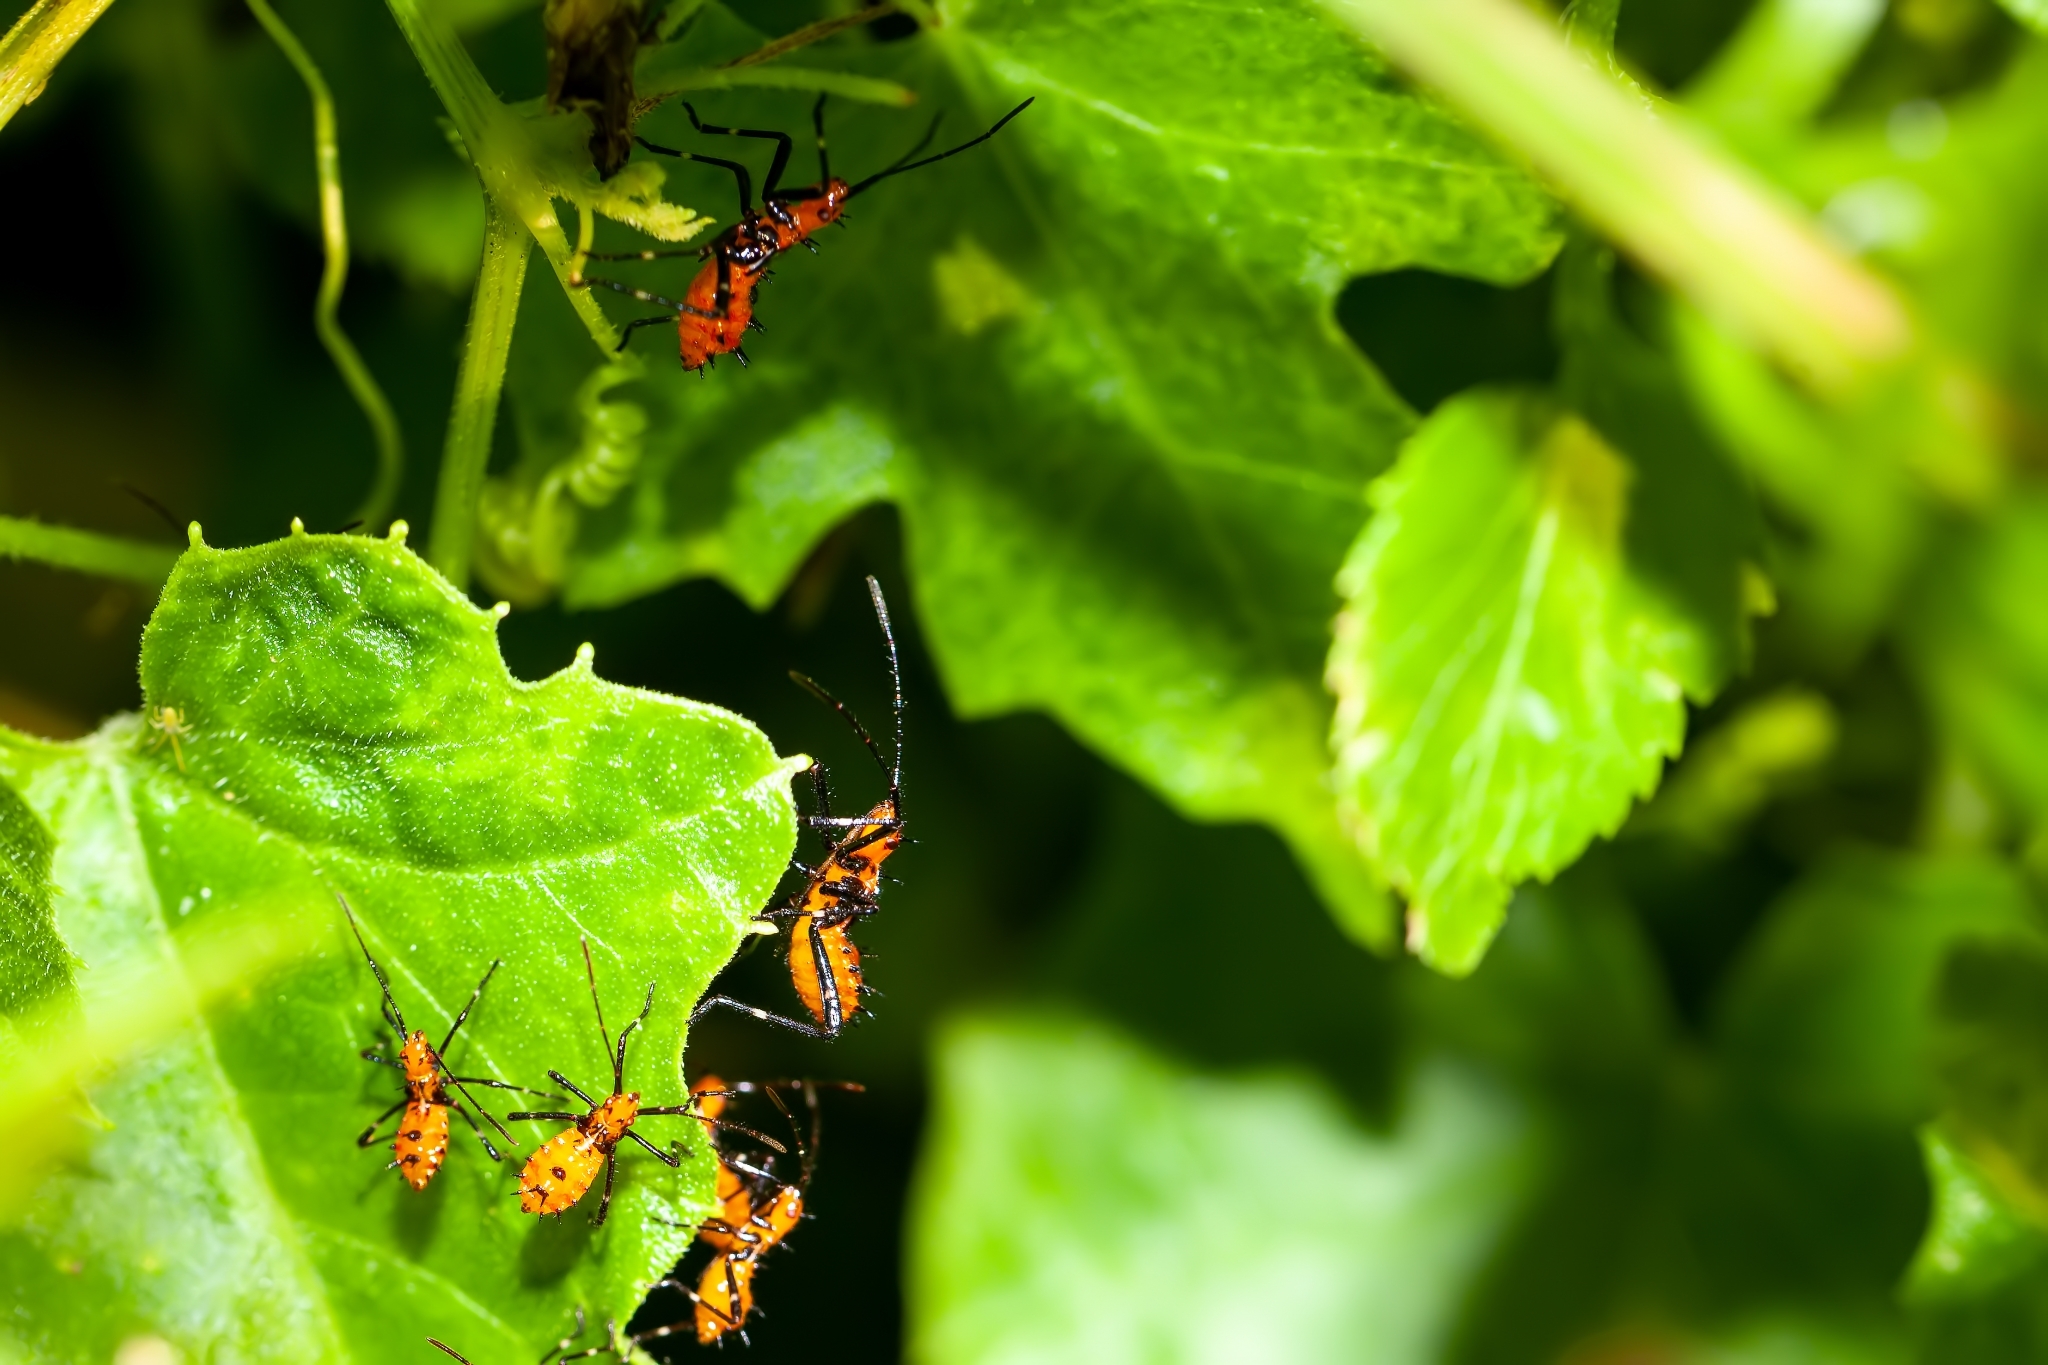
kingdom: Animalia
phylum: Arthropoda
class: Insecta
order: Hemiptera
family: Coreidae
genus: Phthiacnemia
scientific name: Phthiacnemia picta
